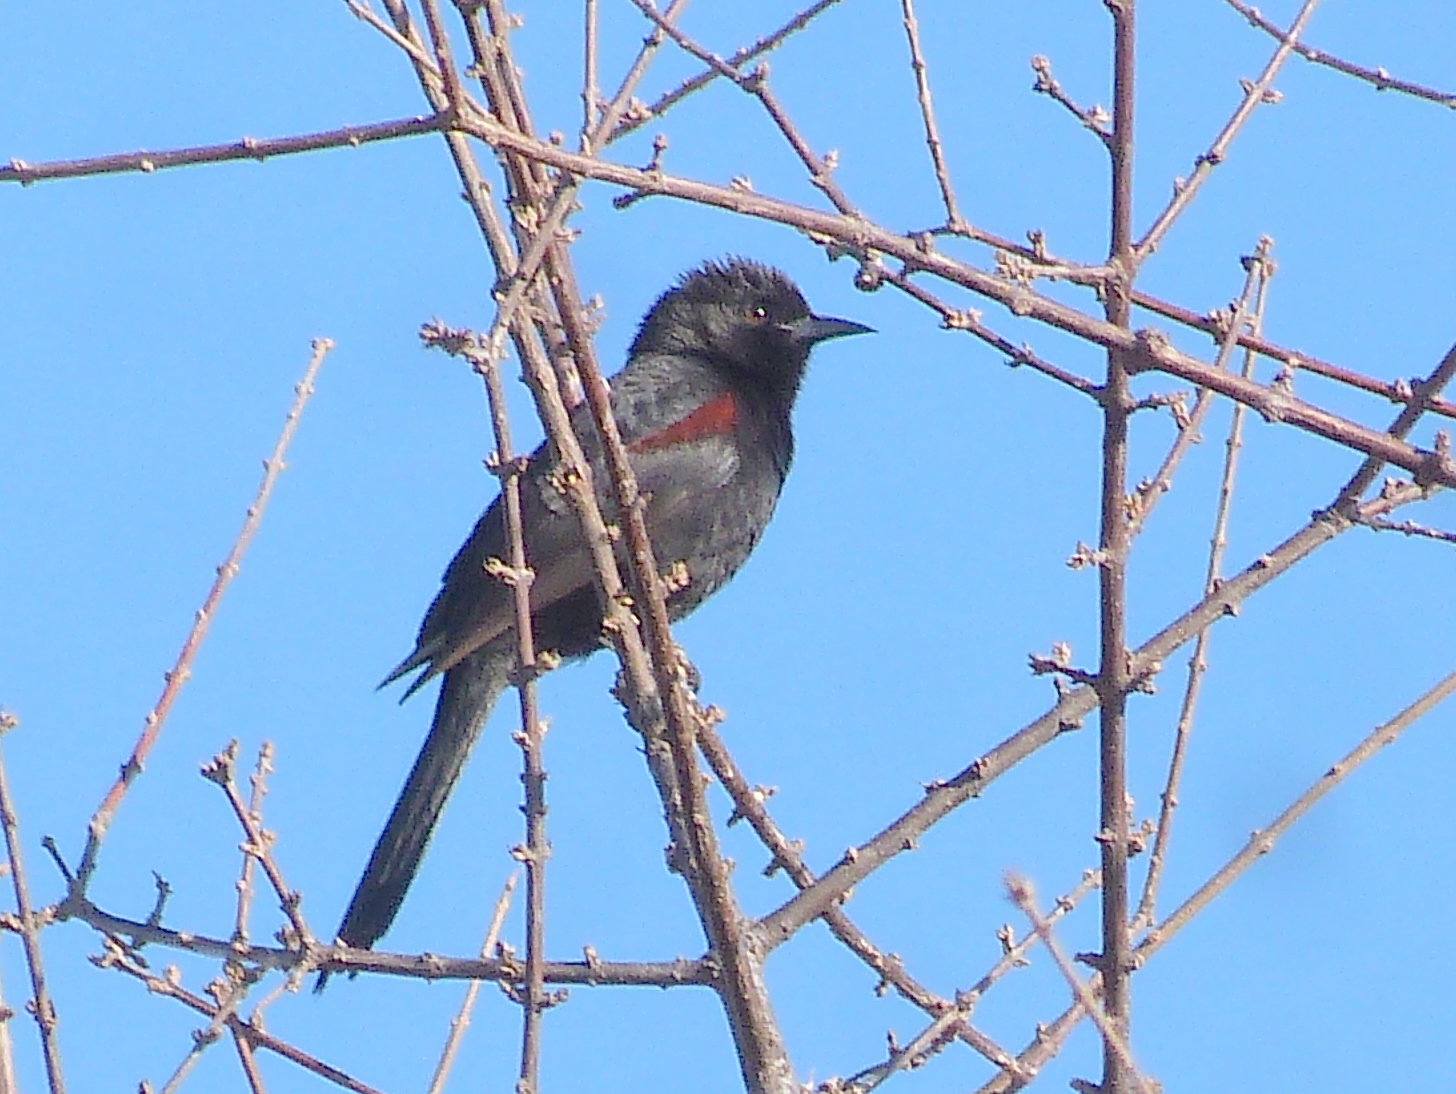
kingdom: Animalia
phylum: Chordata
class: Aves
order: Passeriformes
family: Icteridae
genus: Icterus
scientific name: Icterus cayanensis
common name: Epaulet oriole
